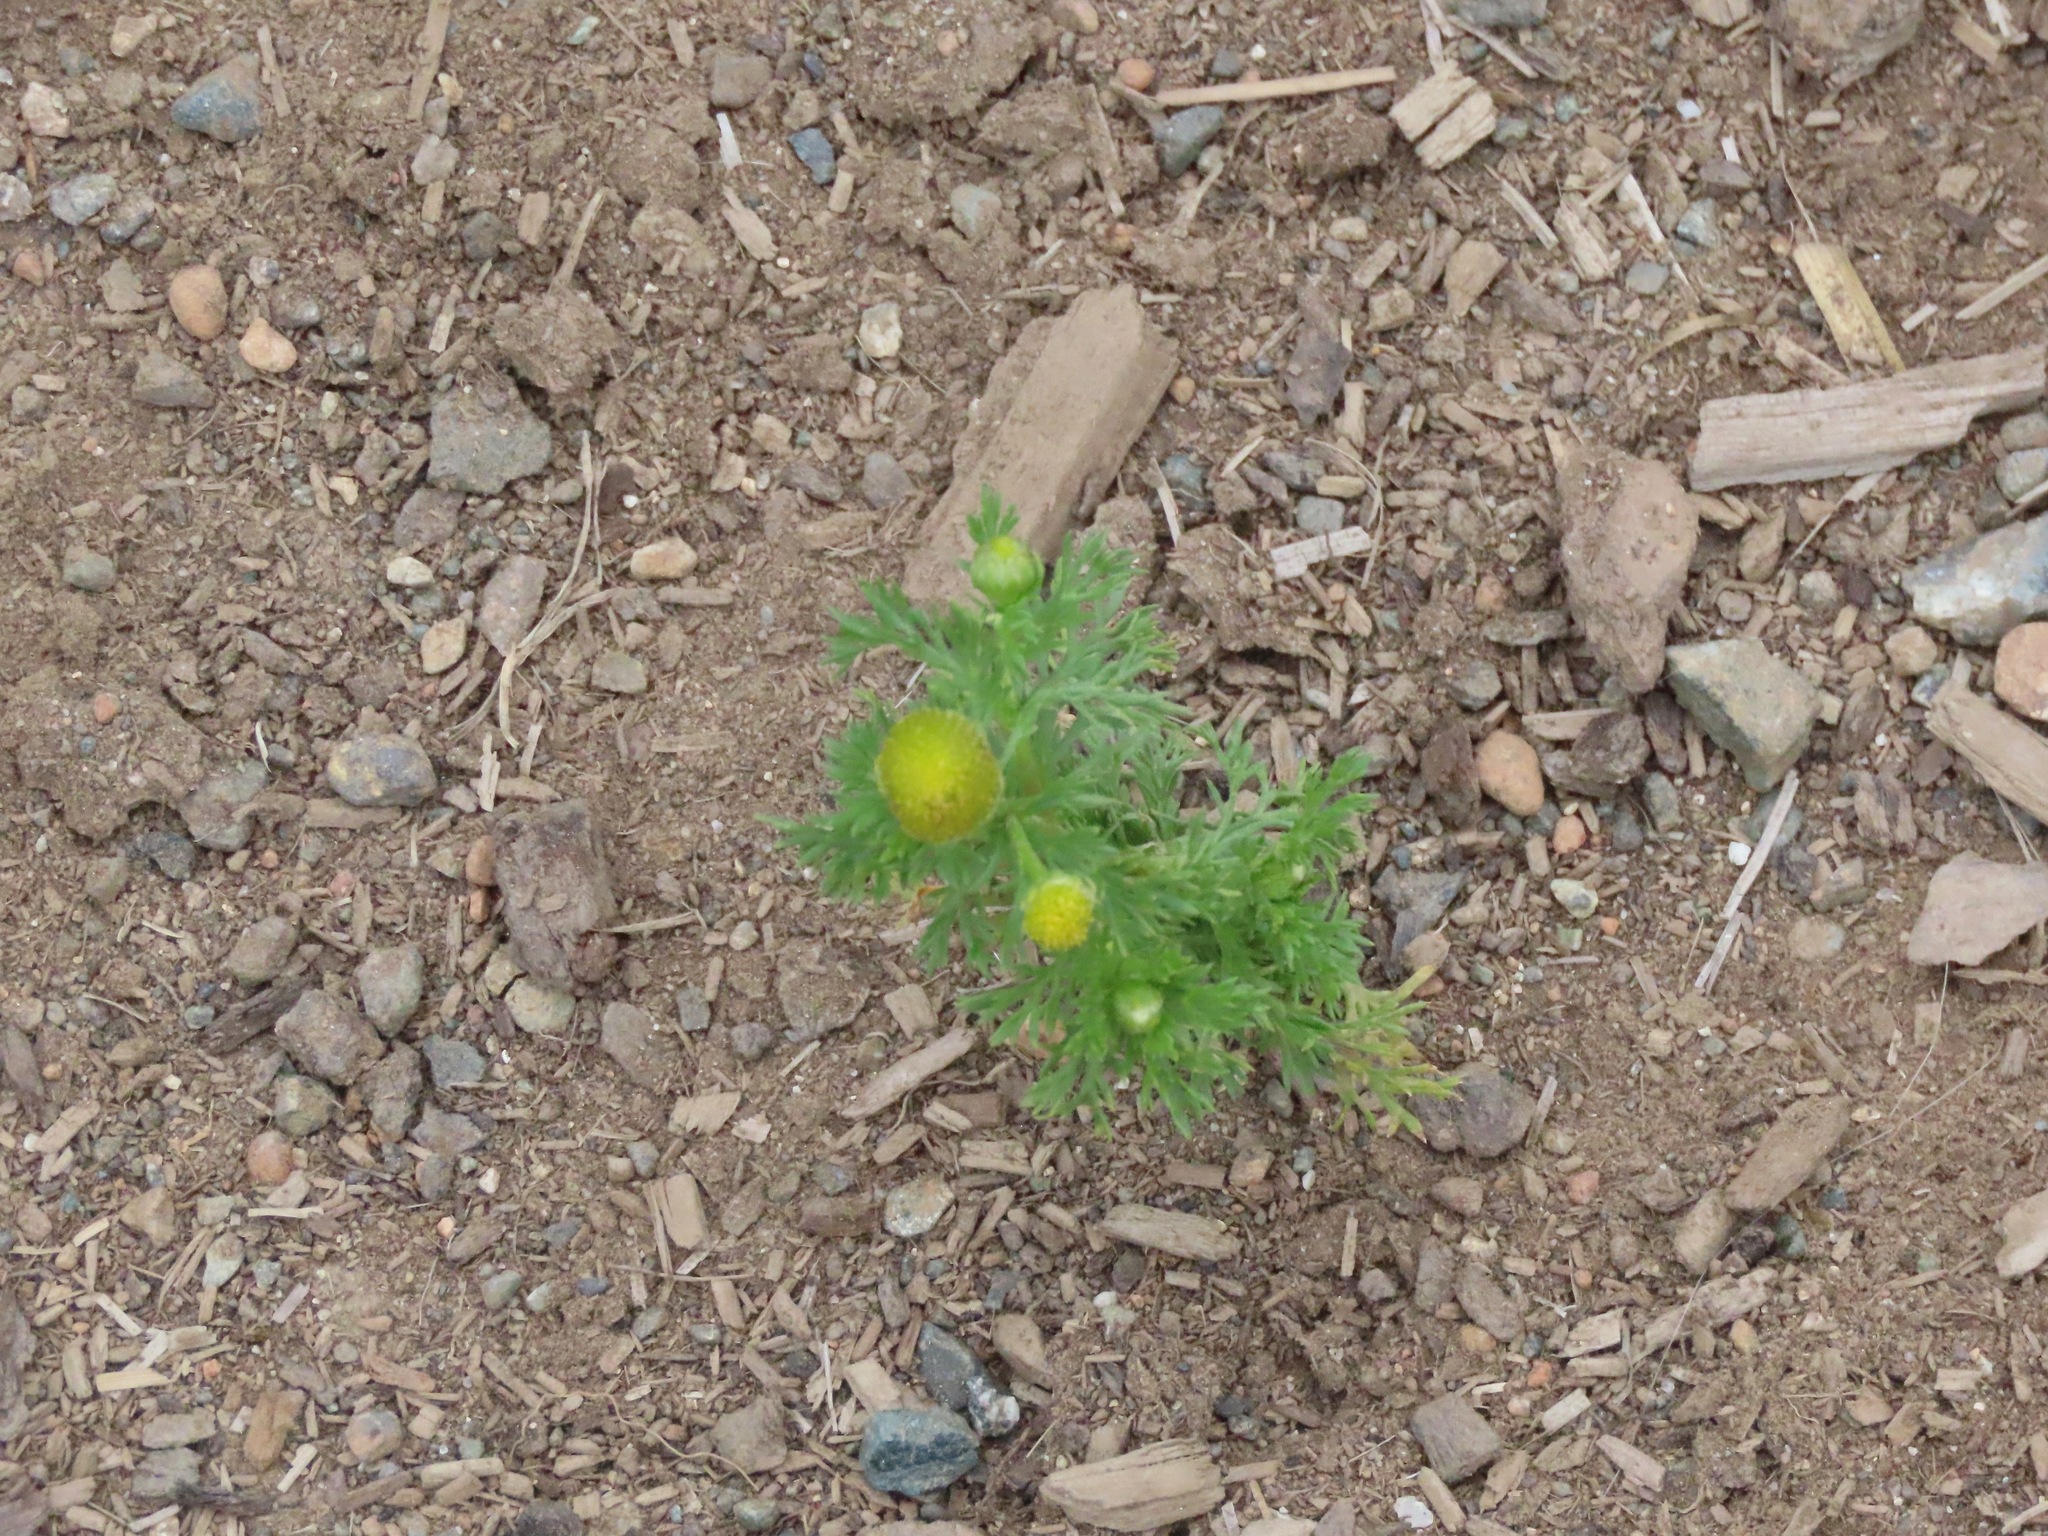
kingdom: Plantae
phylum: Tracheophyta
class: Magnoliopsida
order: Asterales
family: Asteraceae
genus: Matricaria
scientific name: Matricaria discoidea
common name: Disc mayweed
